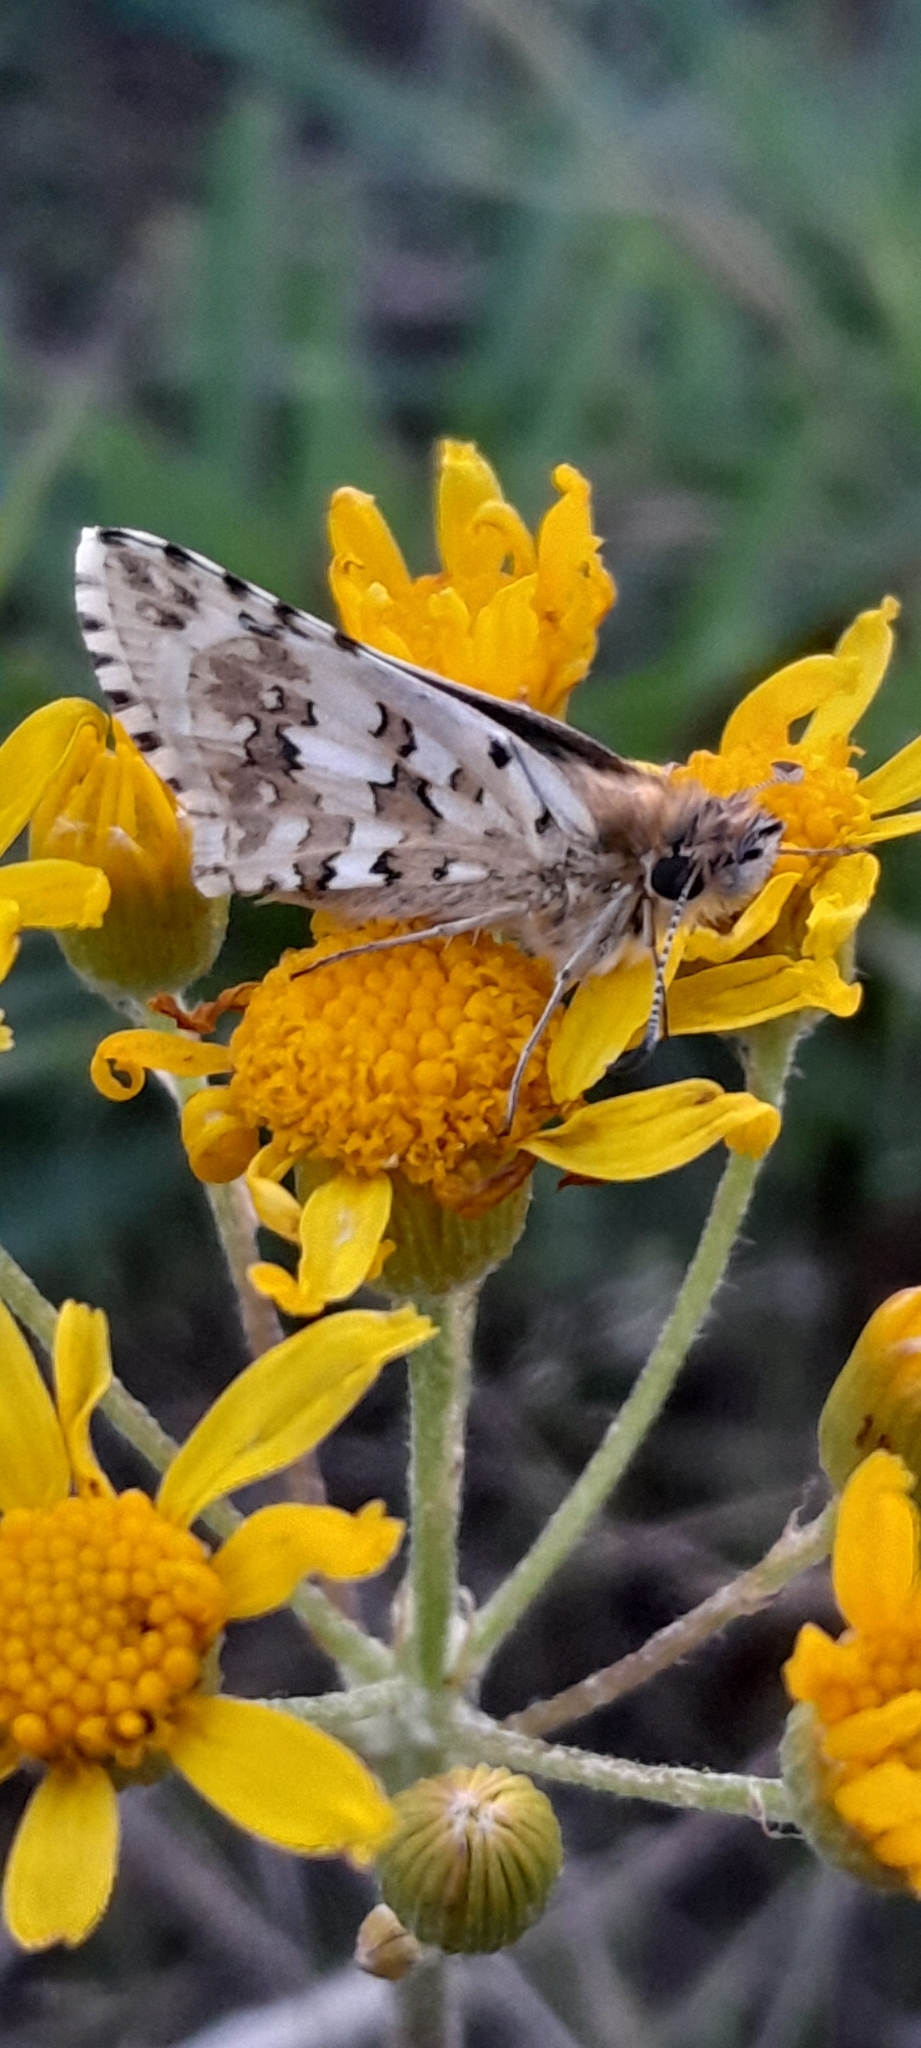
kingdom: Animalia
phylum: Arthropoda
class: Insecta
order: Lepidoptera
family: Hesperiidae
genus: Burnsius
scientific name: Burnsius communis
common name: Common checkered-skipper
